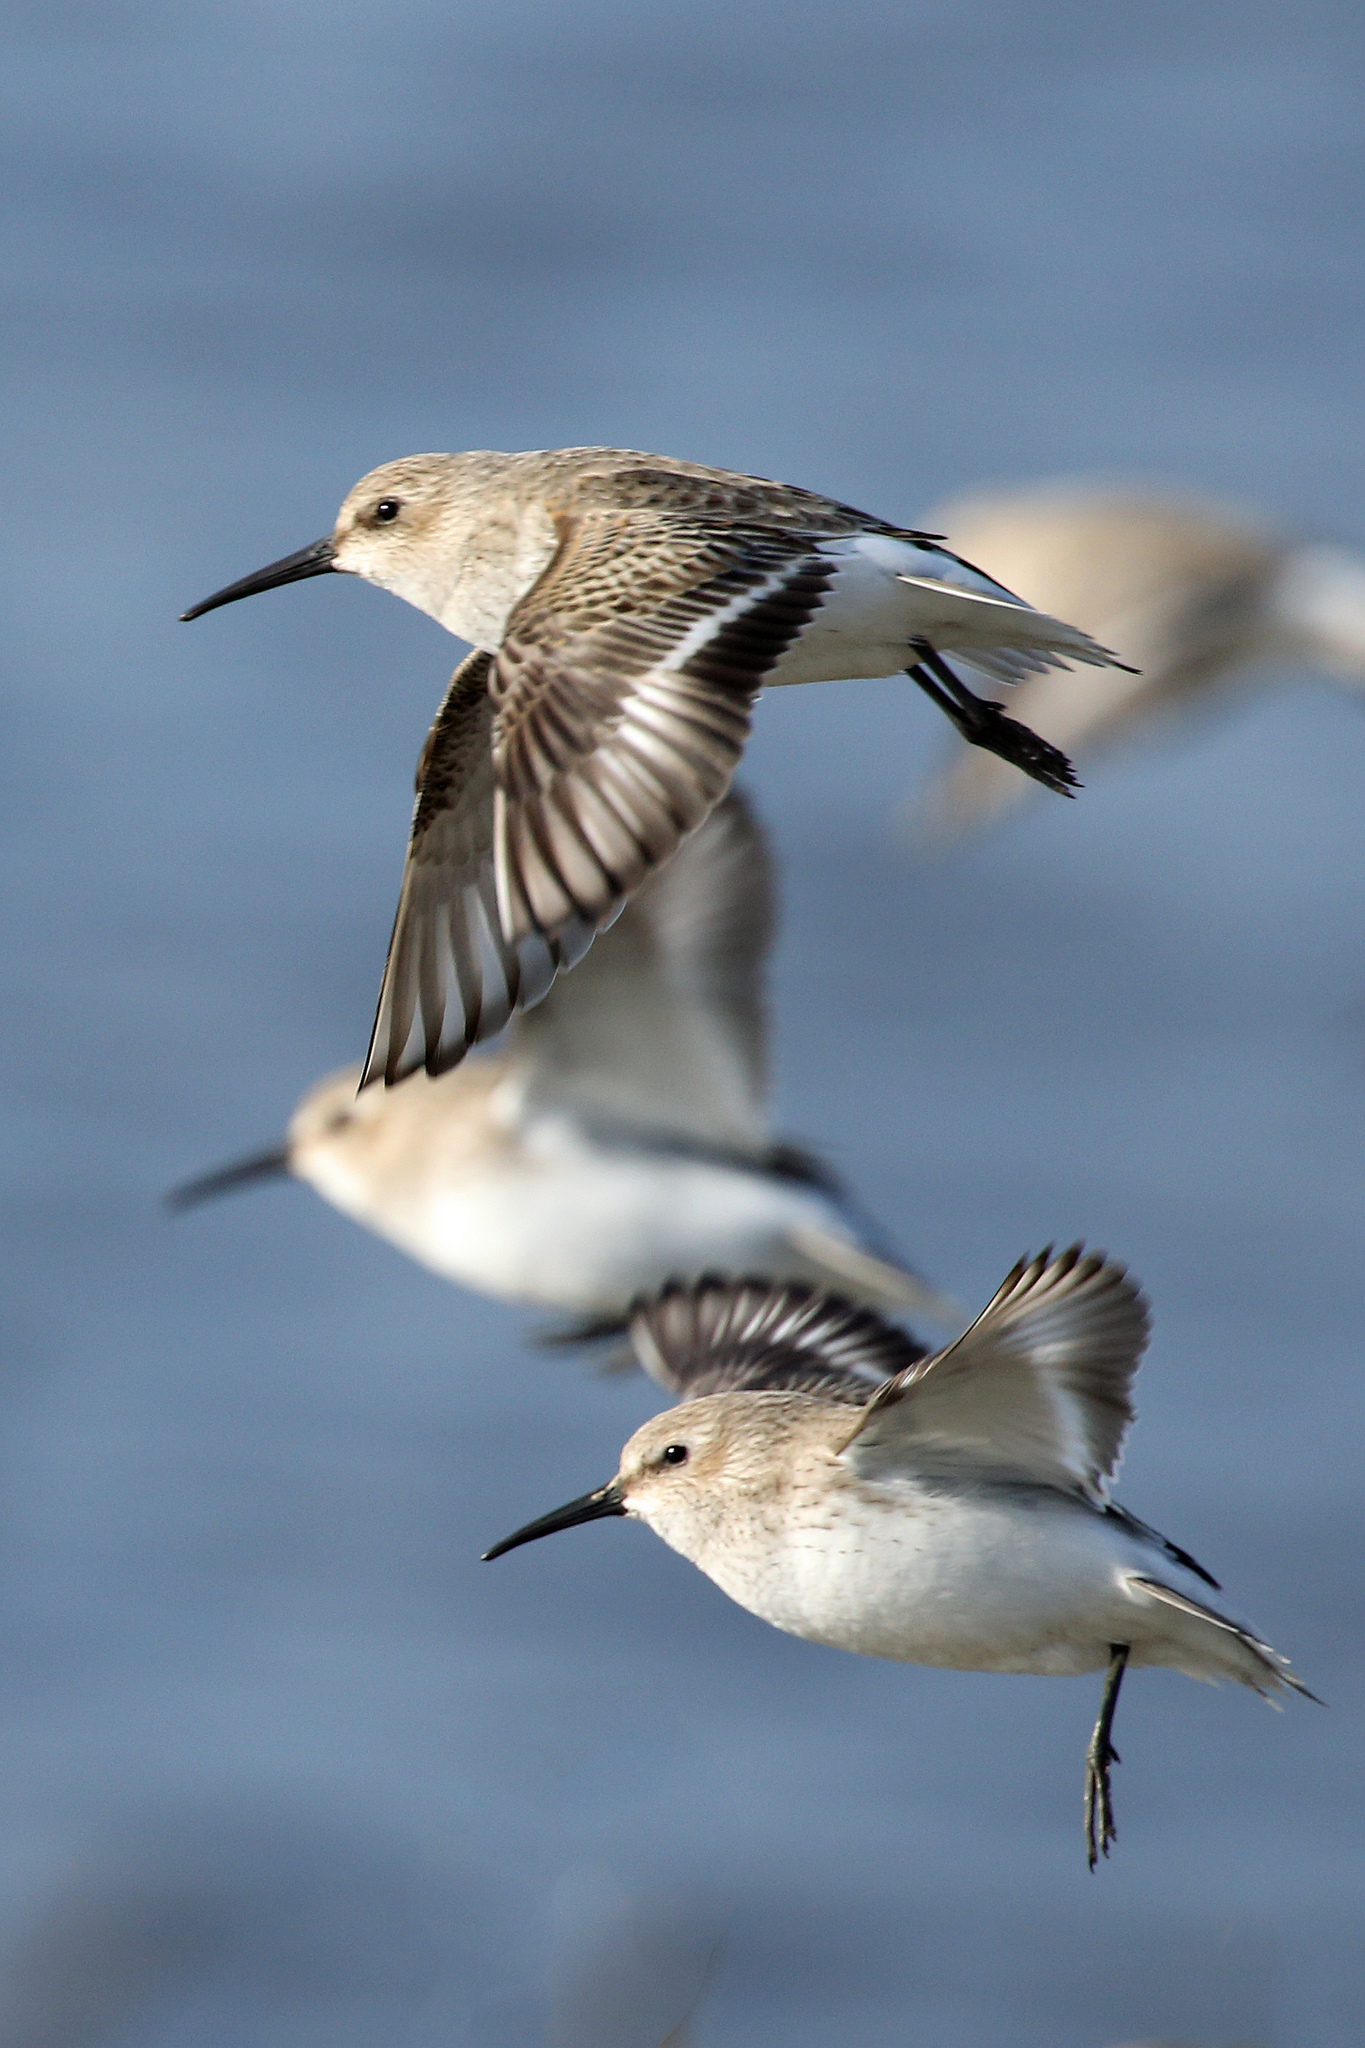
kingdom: Animalia
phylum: Chordata
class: Aves
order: Charadriiformes
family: Scolopacidae
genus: Calidris
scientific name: Calidris alpina
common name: Dunlin
